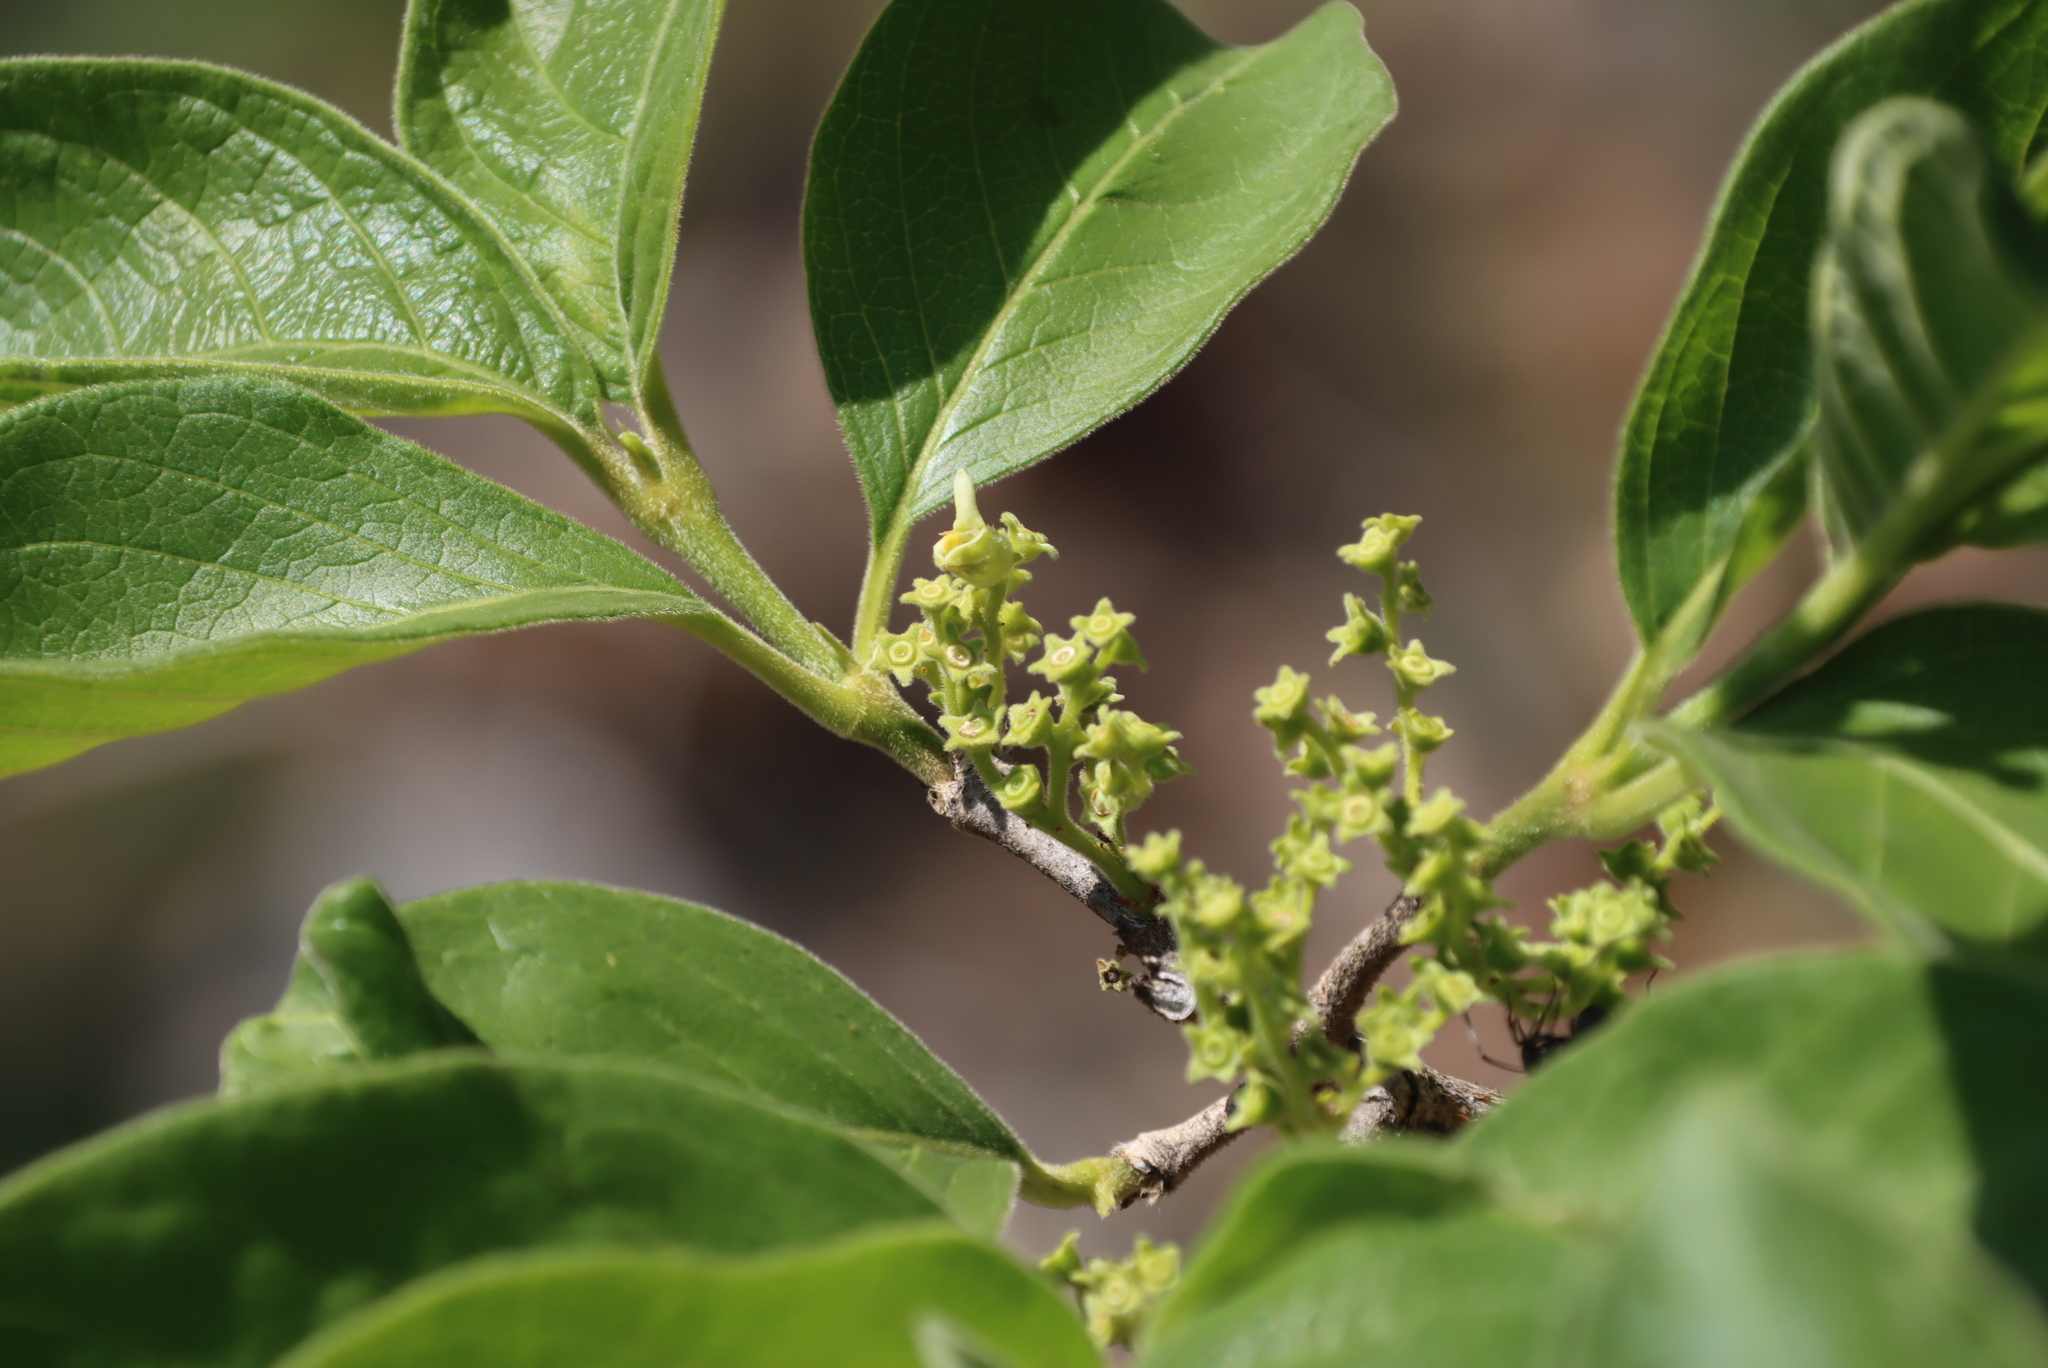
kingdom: Plantae
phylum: Tracheophyta
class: Magnoliopsida
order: Gentianales
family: Rubiaceae
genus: Vangueria
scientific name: Vangueria infausta
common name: Medlar
